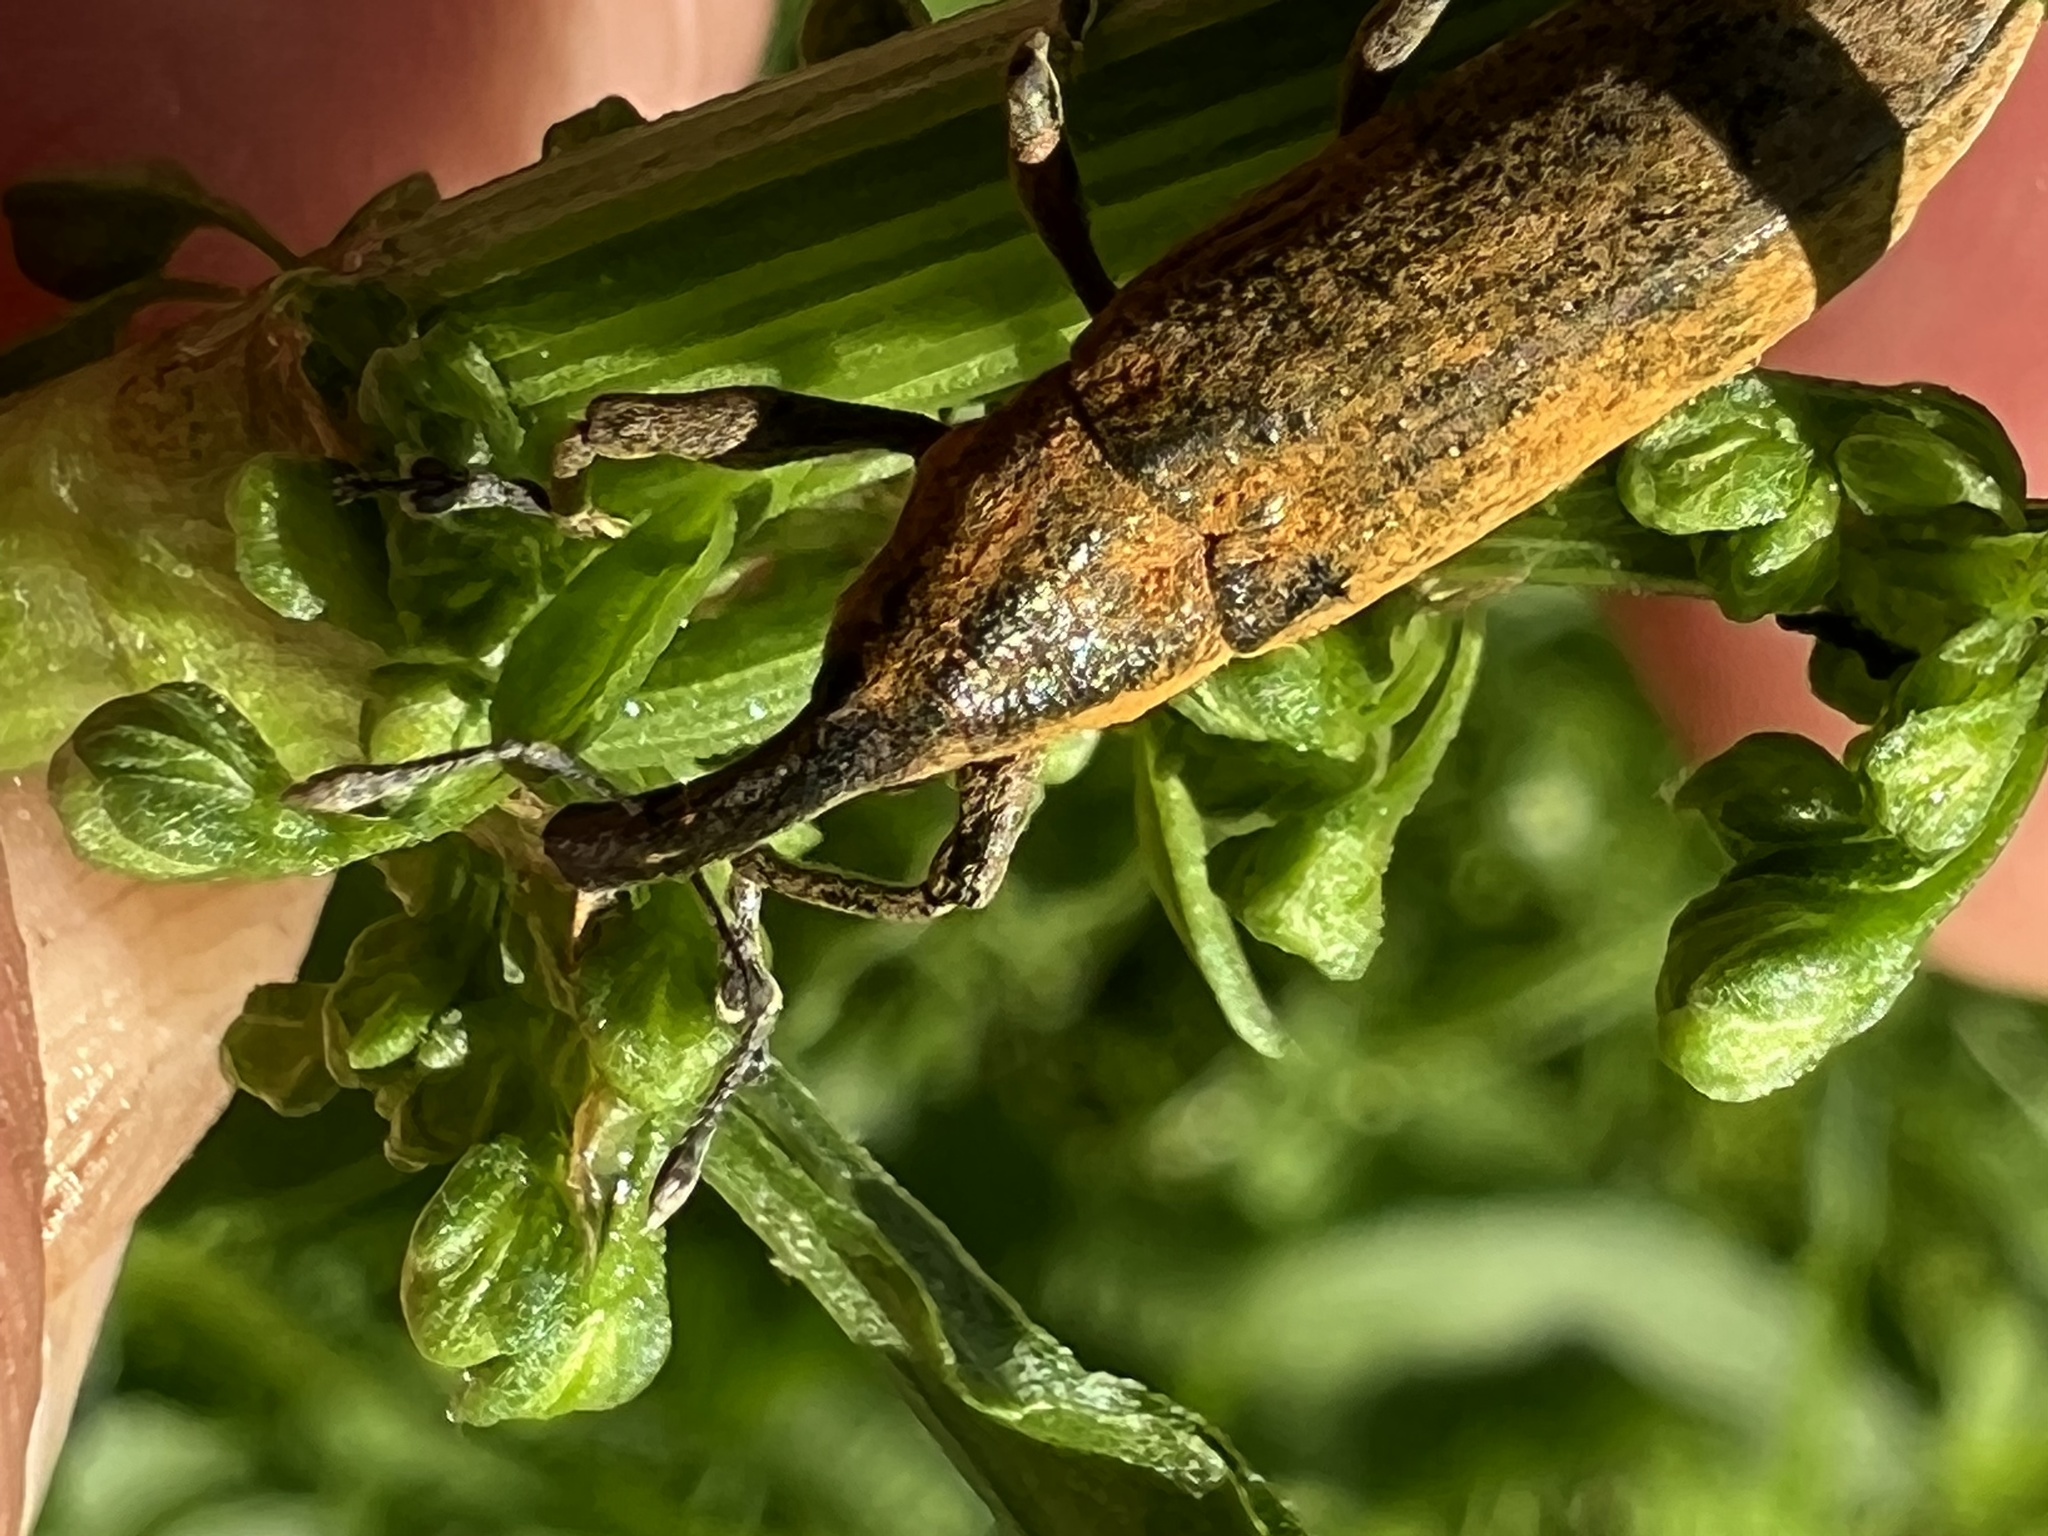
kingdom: Animalia
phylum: Arthropoda
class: Insecta
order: Coleoptera
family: Curculionidae
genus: Lixus
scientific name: Lixus concavus
